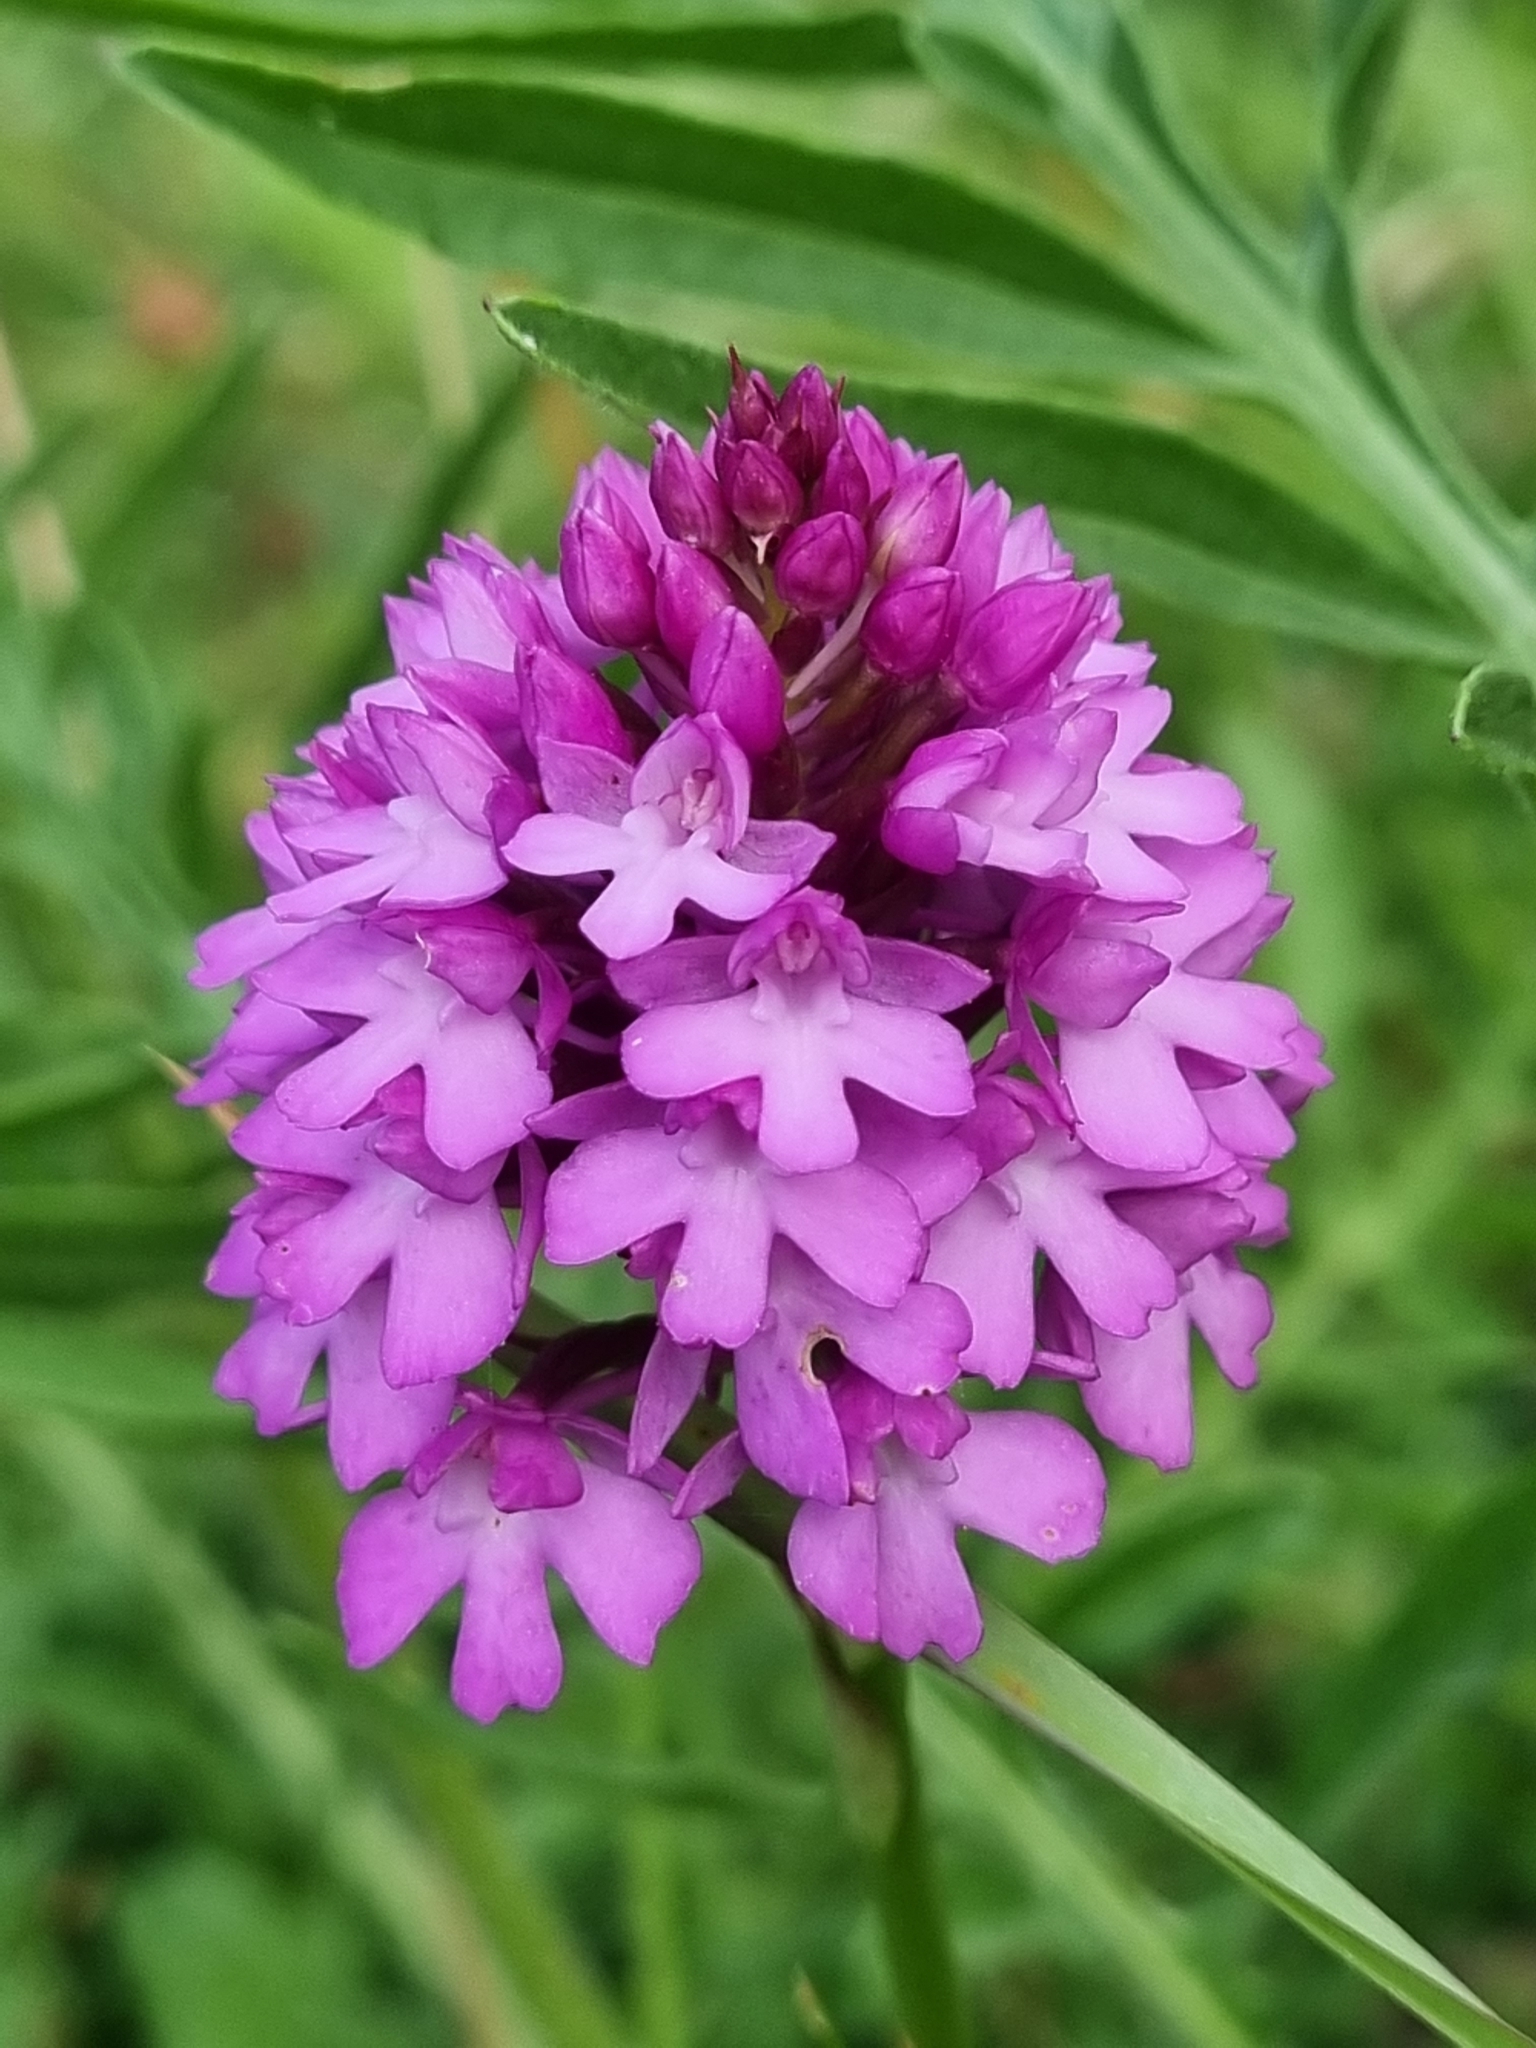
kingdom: Plantae
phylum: Tracheophyta
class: Liliopsida
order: Asparagales
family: Orchidaceae
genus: Anacamptis
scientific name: Anacamptis pyramidalis
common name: Pyramidal orchid
